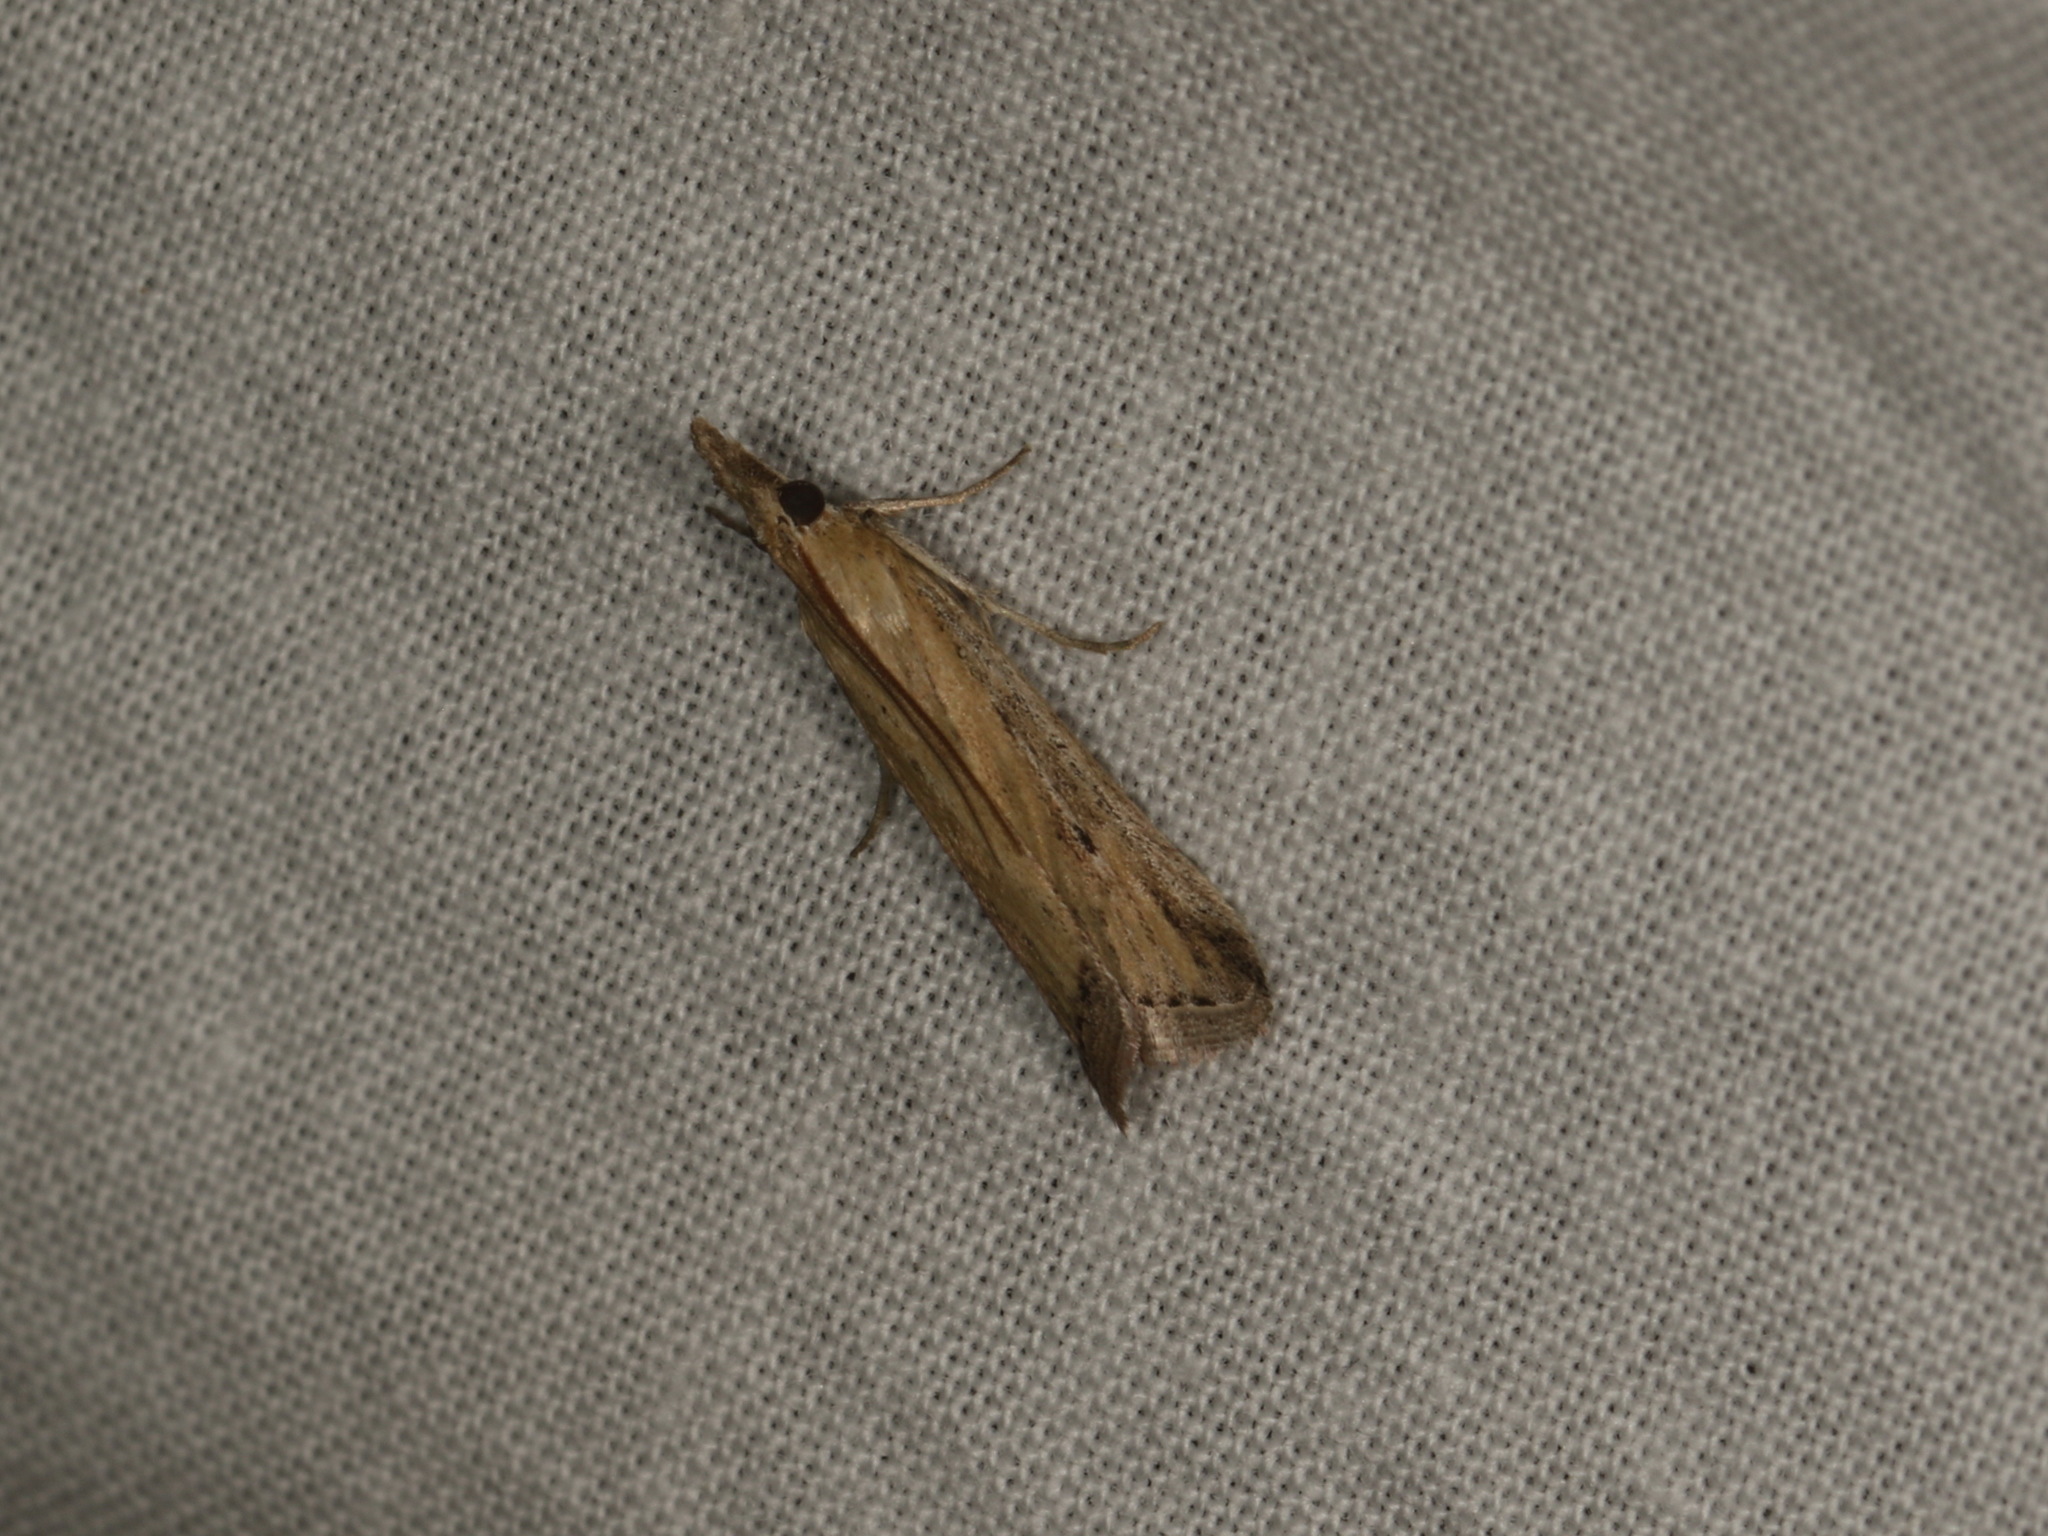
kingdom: Animalia
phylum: Arthropoda
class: Insecta
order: Lepidoptera
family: Pyralidae
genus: Faveria
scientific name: Faveria tritalis
